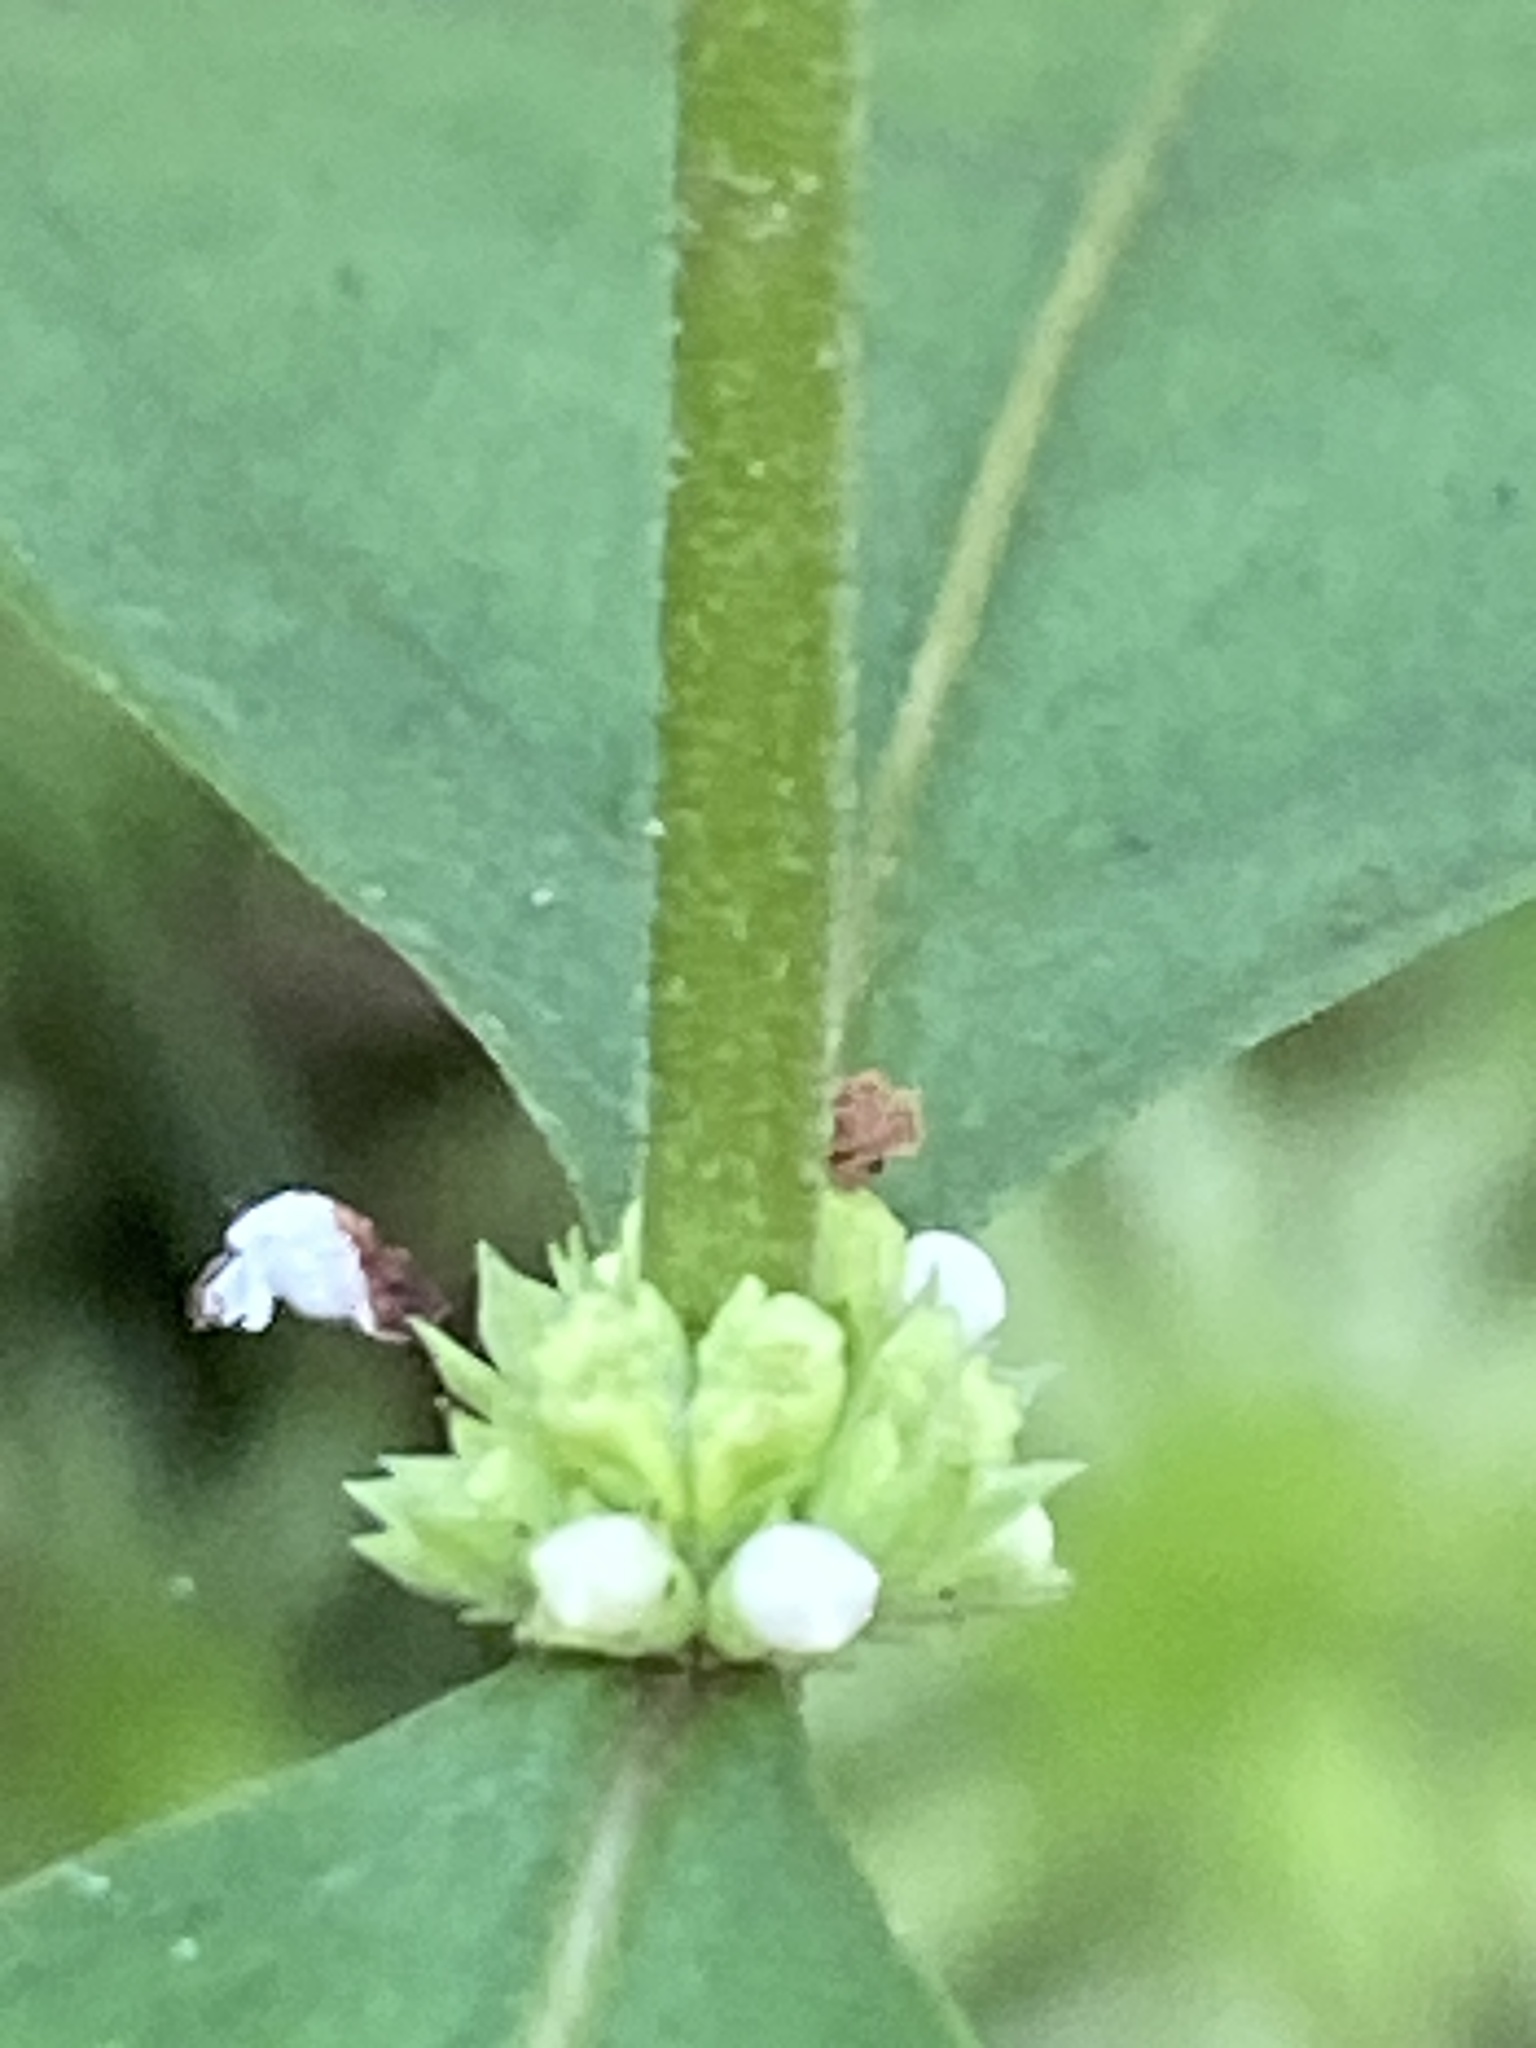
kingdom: Plantae
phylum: Tracheophyta
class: Magnoliopsida
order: Lamiales
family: Lamiaceae
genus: Lycopus
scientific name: Lycopus cokeri
